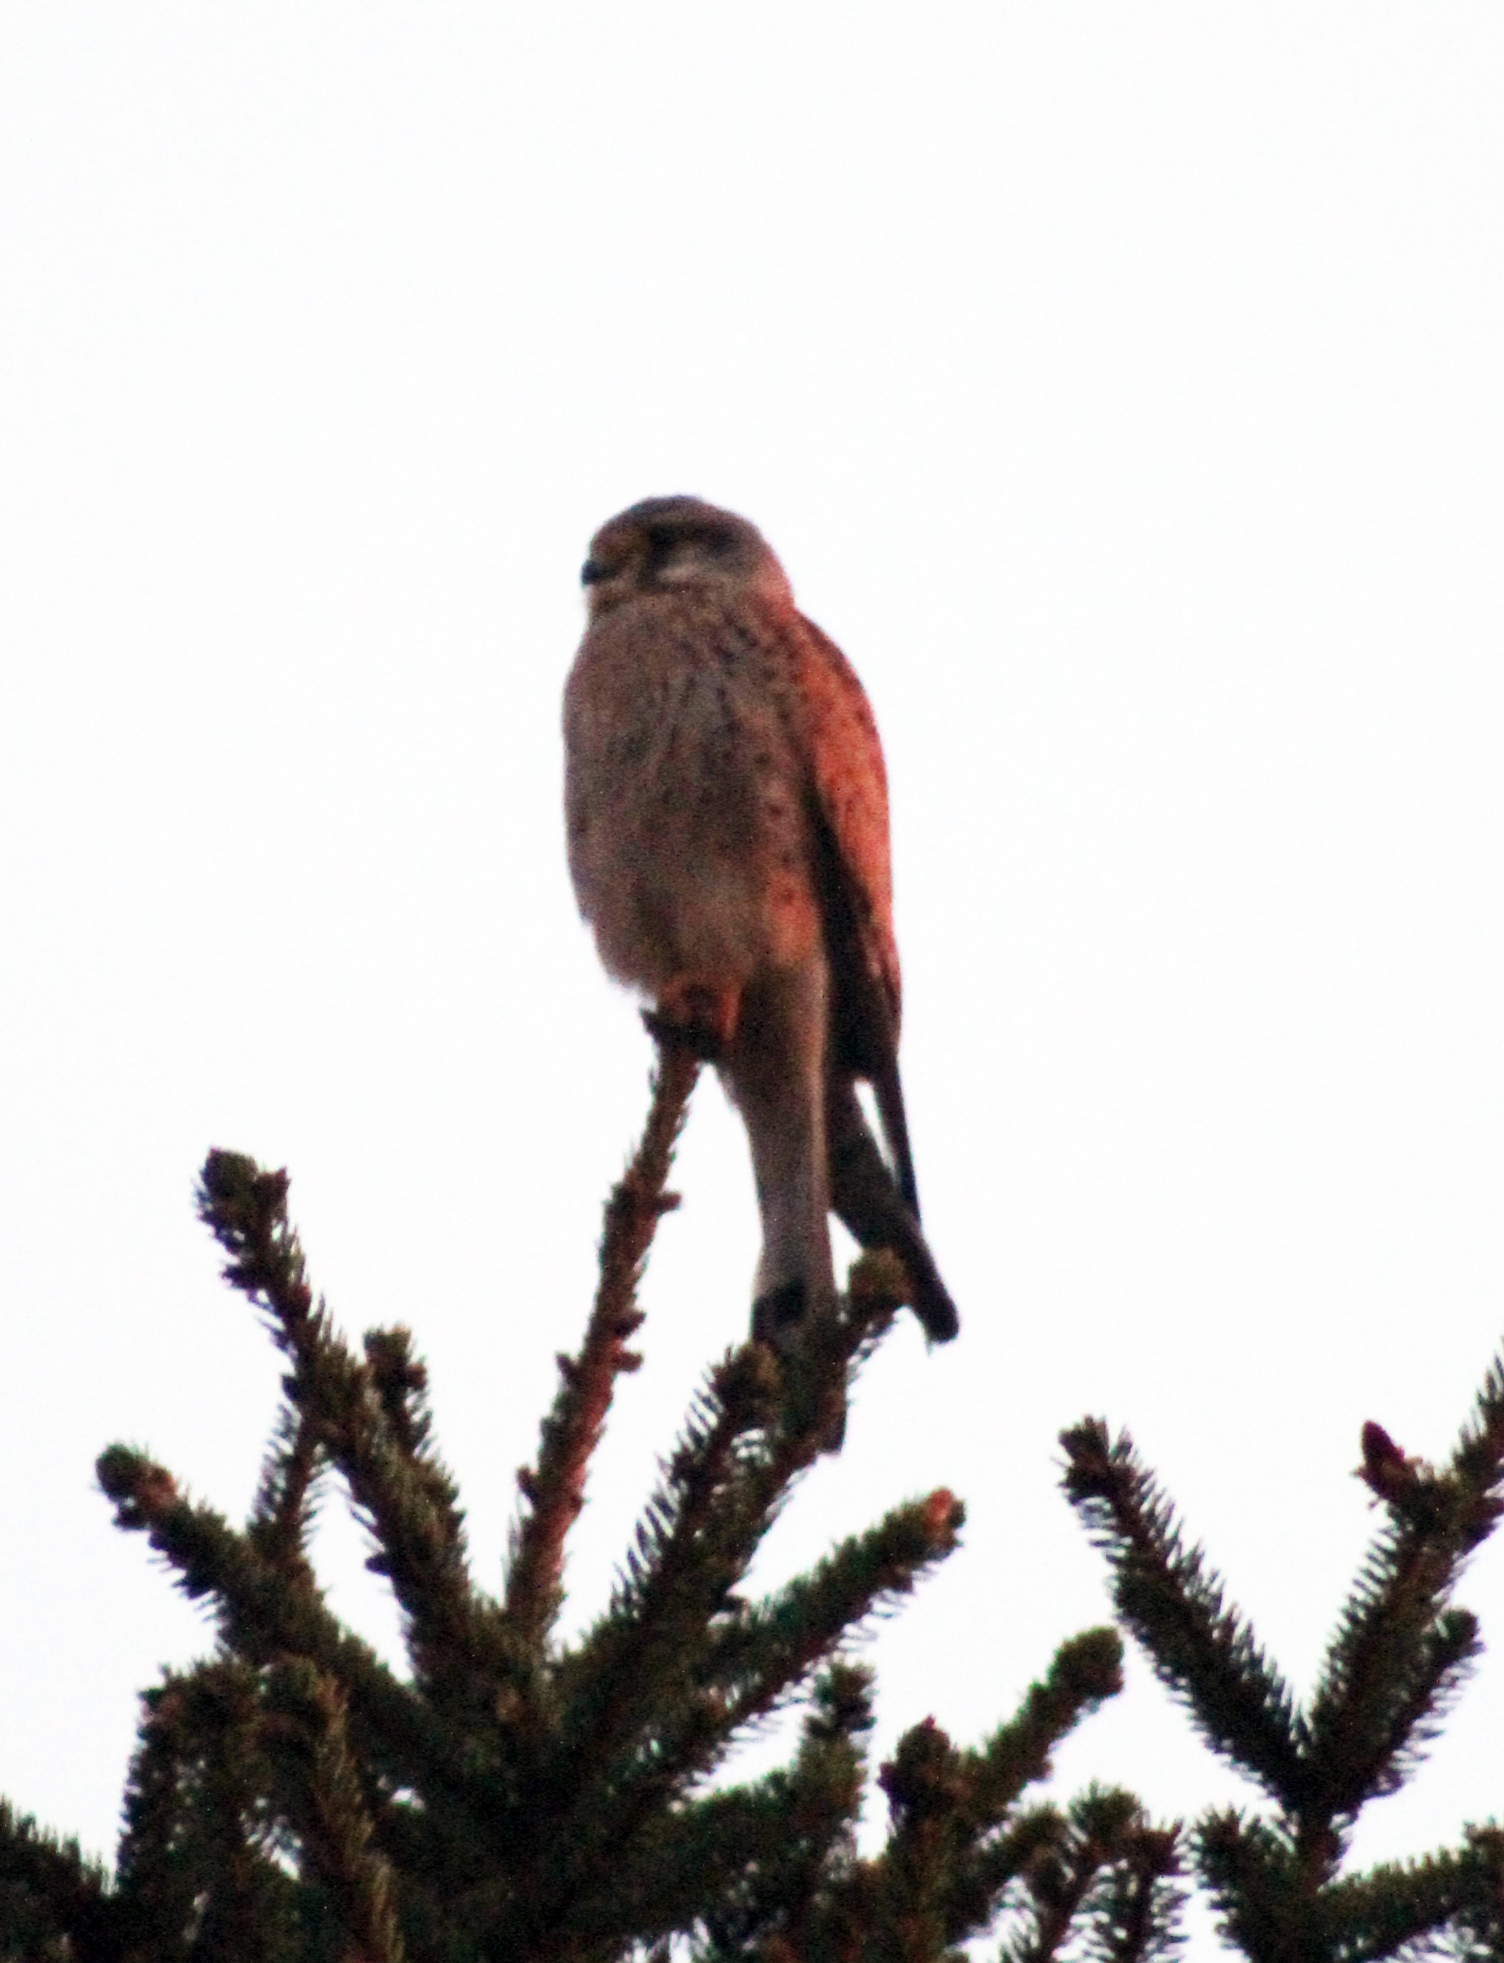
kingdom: Animalia
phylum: Chordata
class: Aves
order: Falconiformes
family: Falconidae
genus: Falco
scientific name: Falco tinnunculus
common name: Common kestrel
